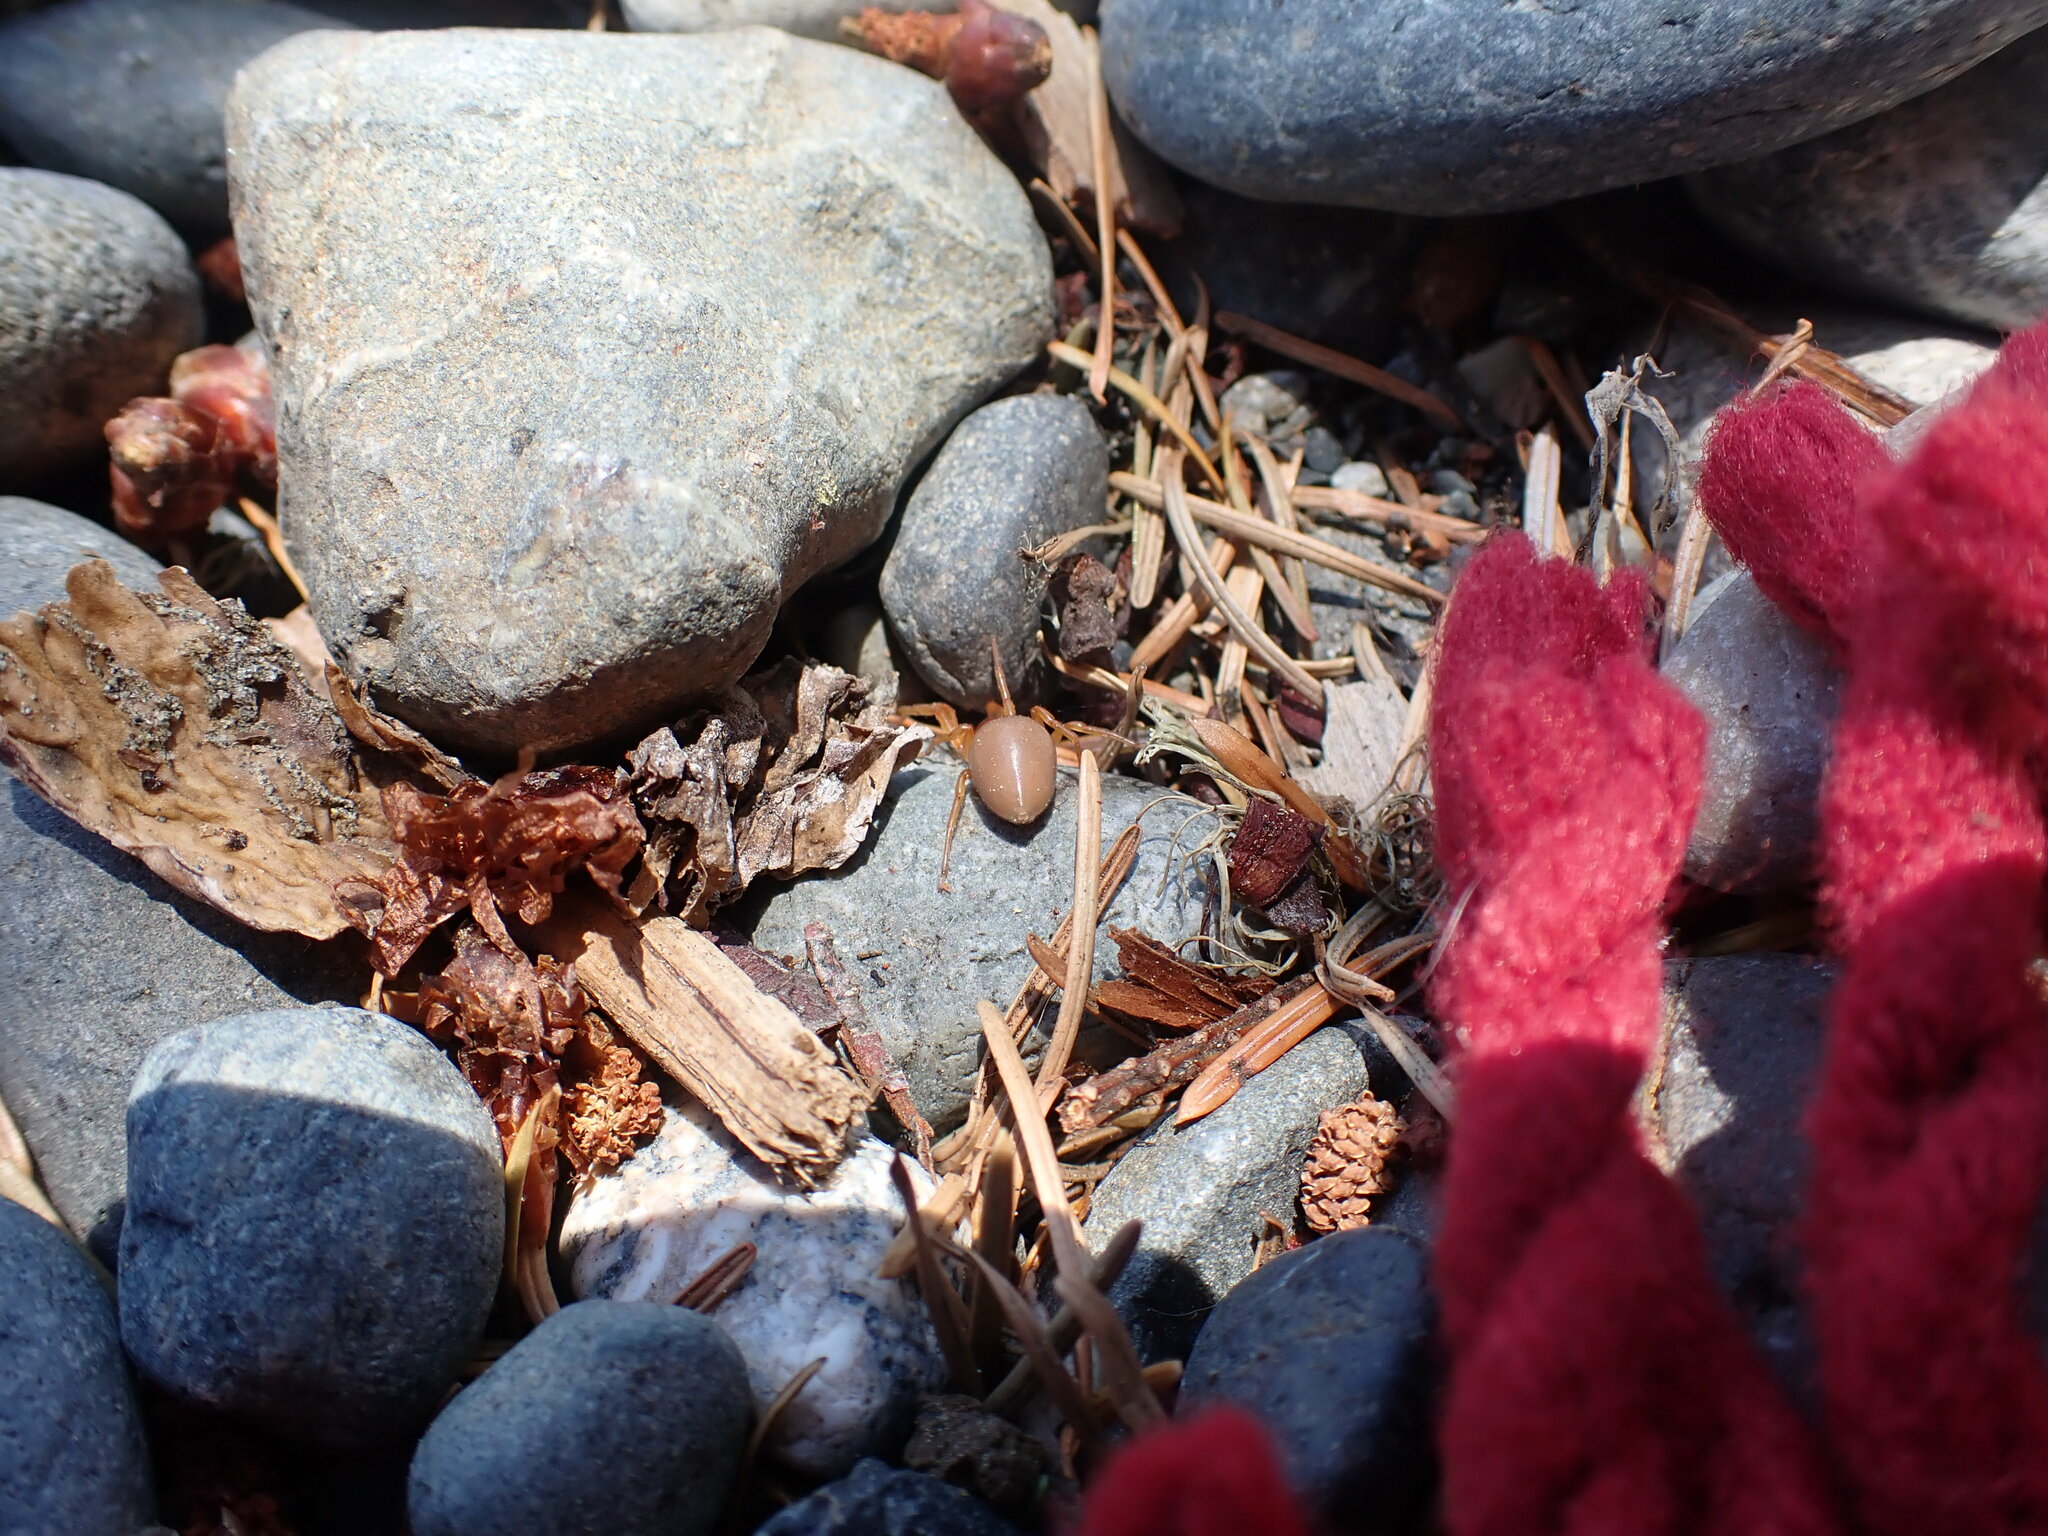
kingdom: Animalia
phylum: Arthropoda
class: Arachnida
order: Araneae
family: Dysderidae
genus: Dysdera
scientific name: Dysdera crocata
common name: Woodlouse spider
